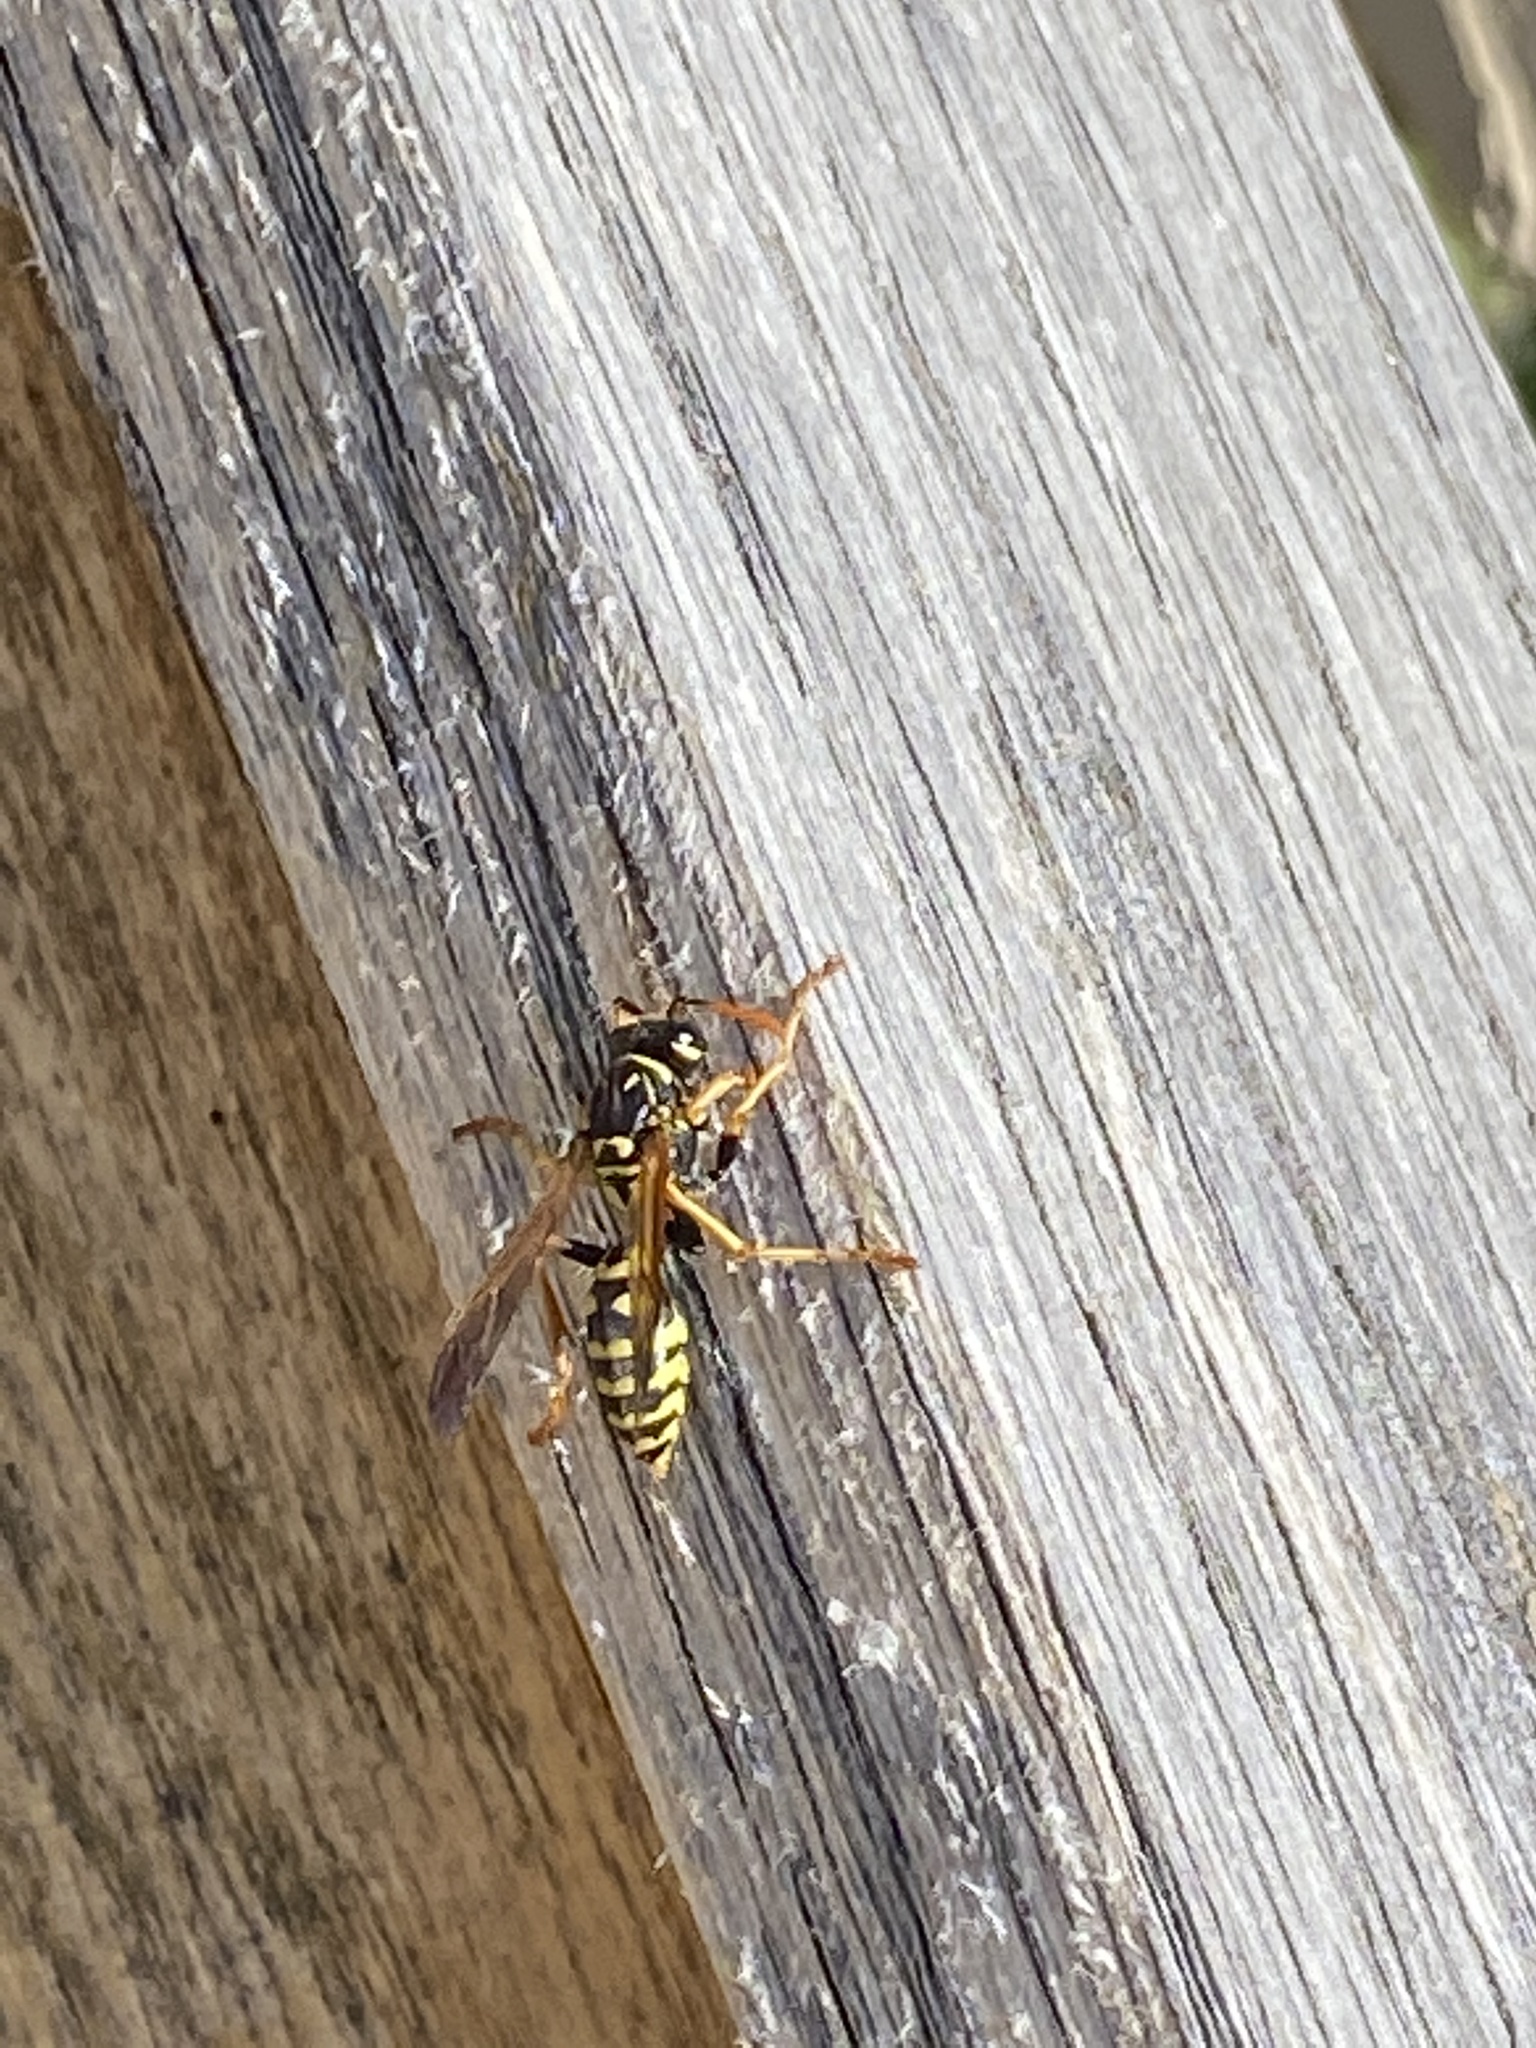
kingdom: Animalia
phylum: Arthropoda
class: Insecta
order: Hymenoptera
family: Eumenidae
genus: Polistes
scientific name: Polistes dominula
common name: Paper wasp
